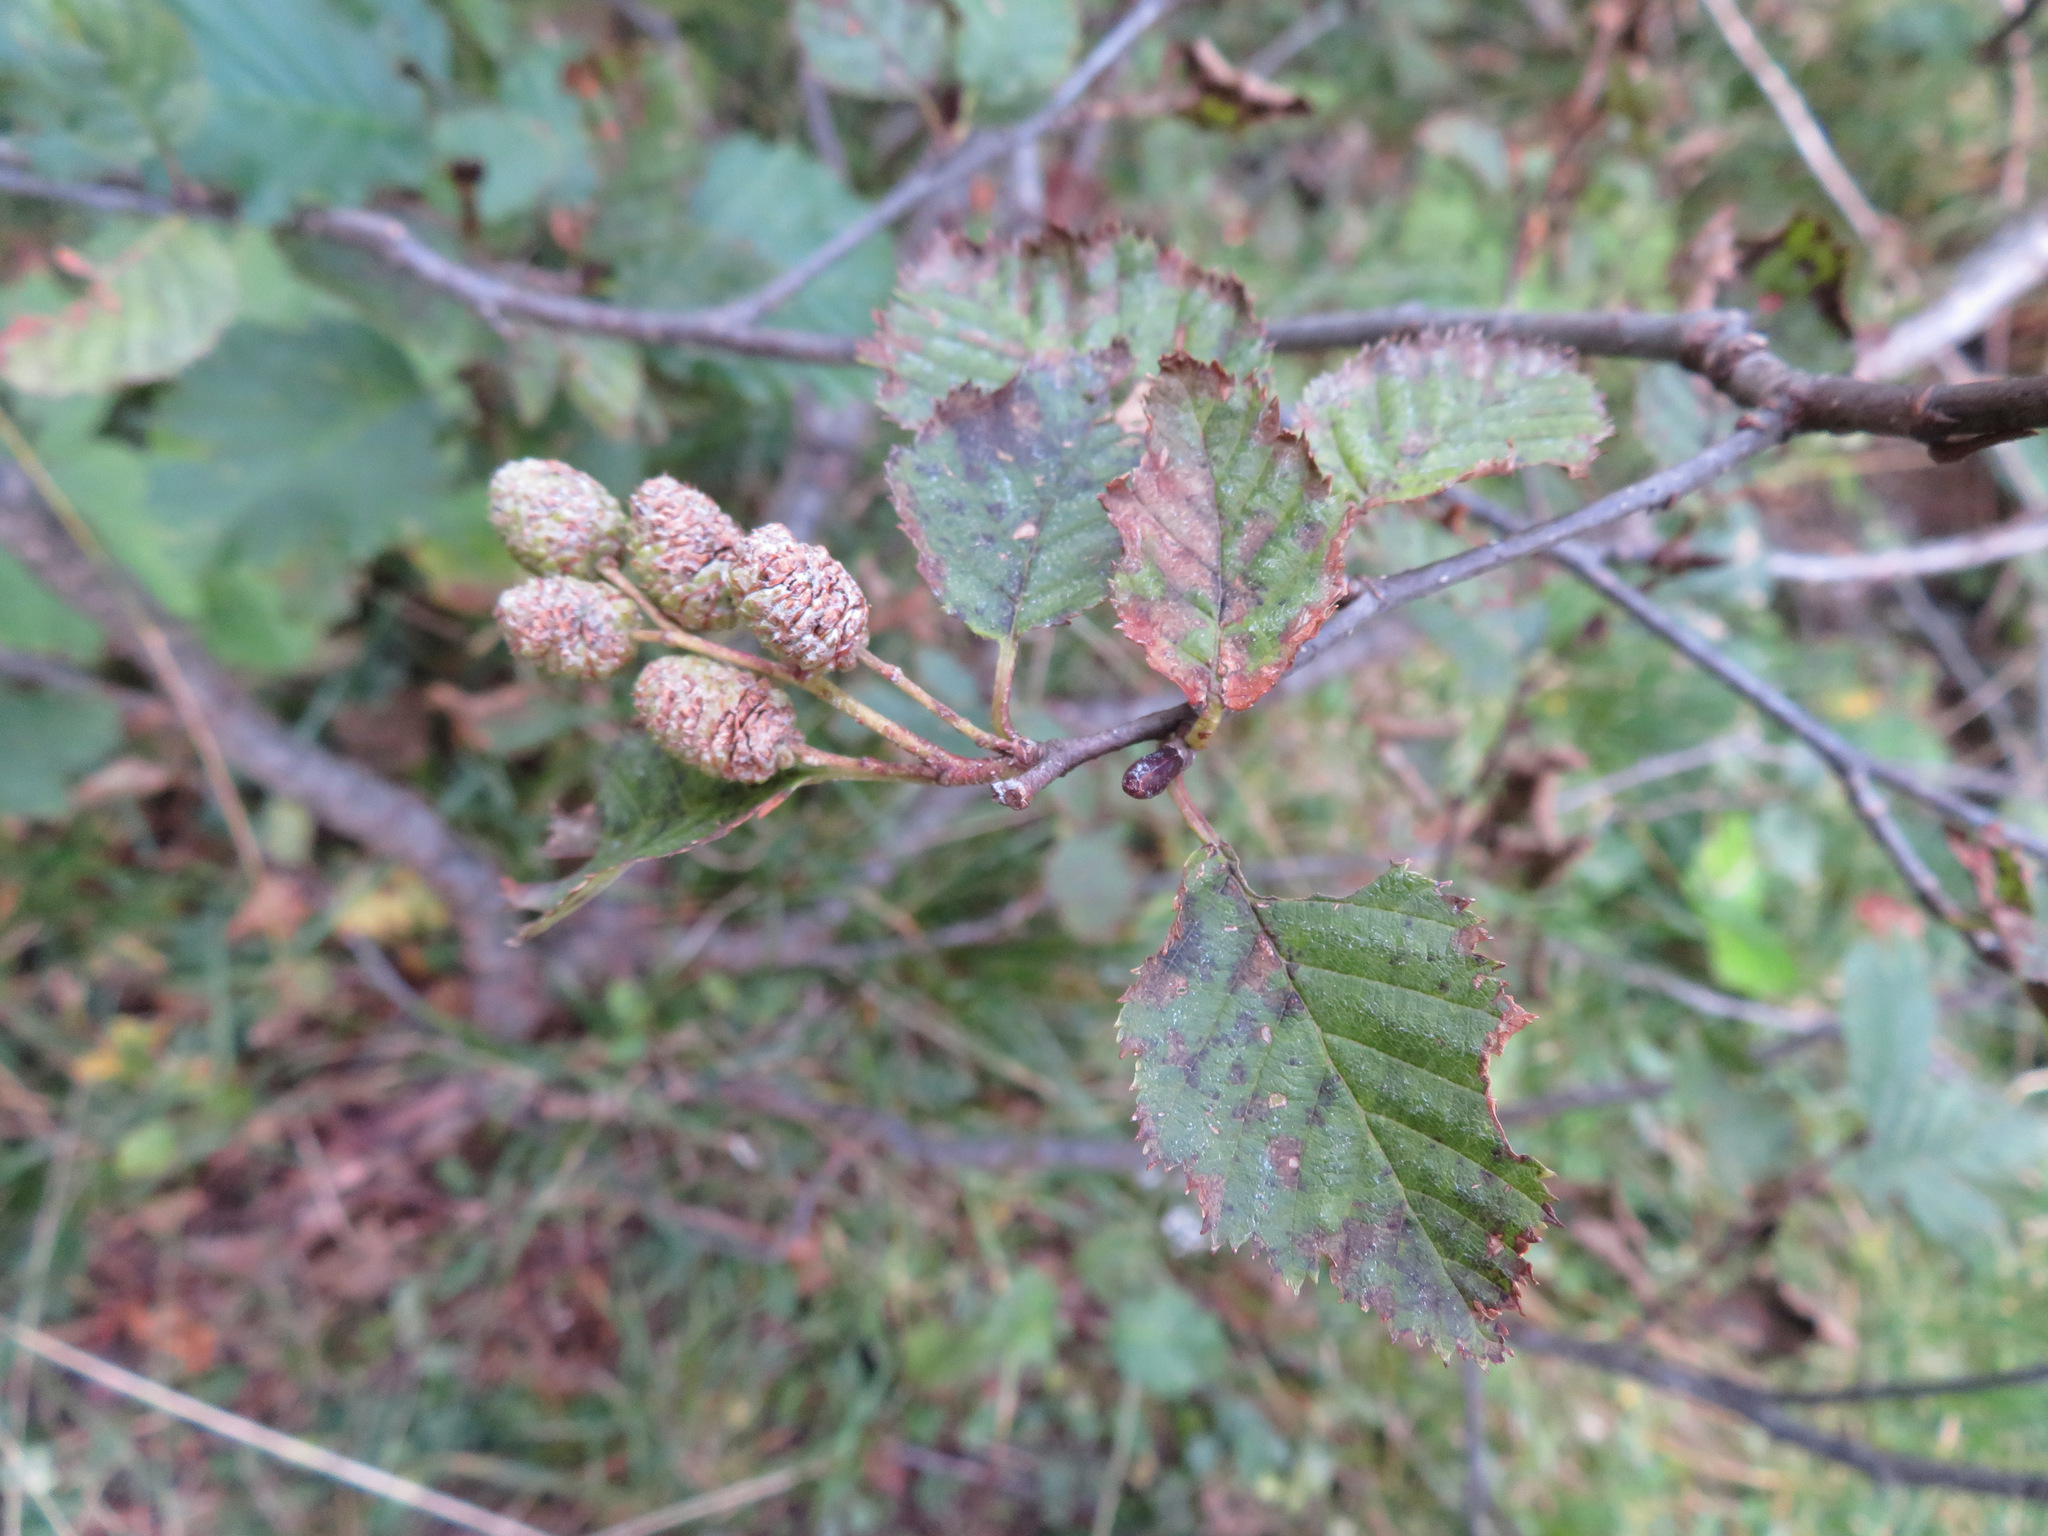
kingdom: Plantae
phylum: Tracheophyta
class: Magnoliopsida
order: Fagales
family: Betulaceae
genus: Alnus
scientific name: Alnus alnobetula
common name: Green alder
